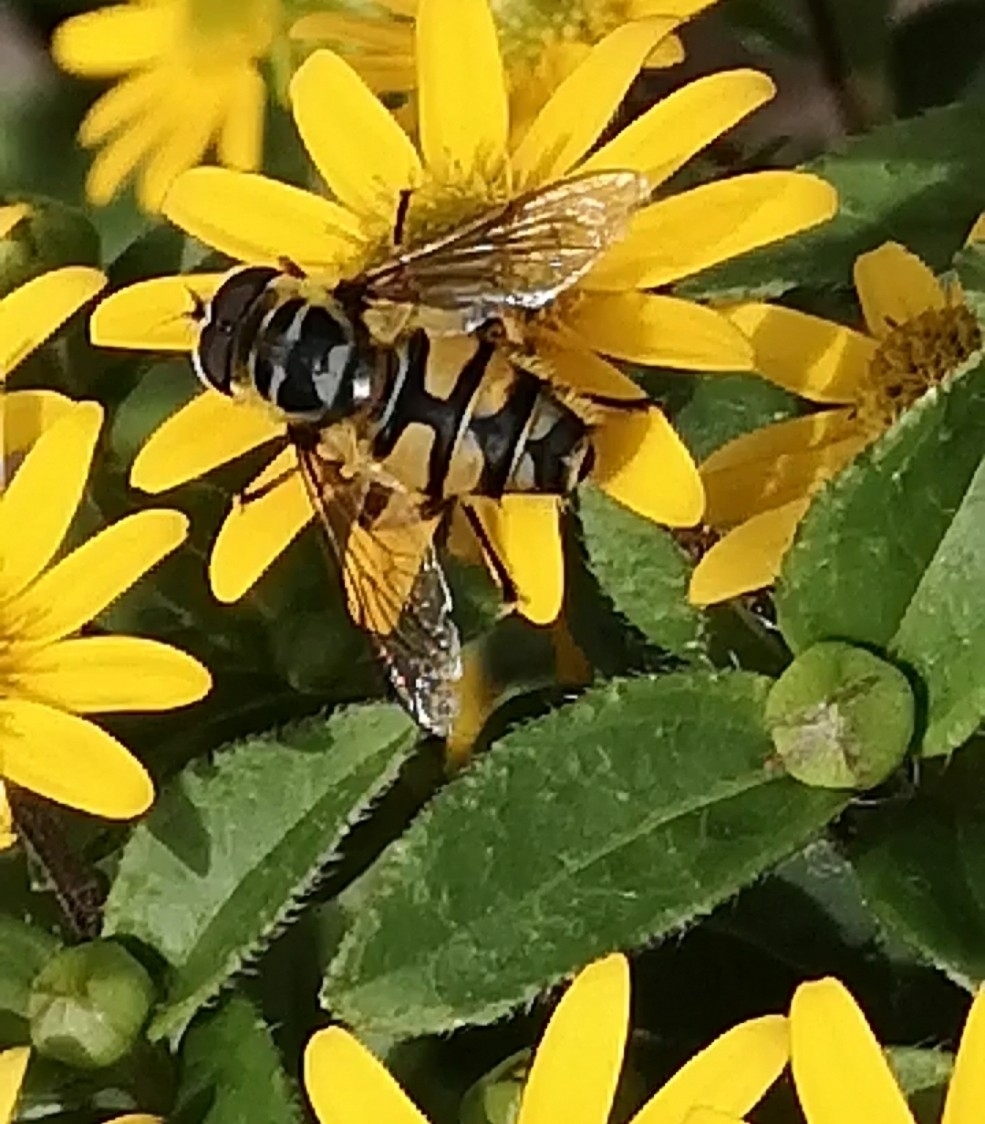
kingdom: Animalia
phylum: Arthropoda
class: Insecta
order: Diptera
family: Syrphidae
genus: Myathropa
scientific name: Myathropa florea
